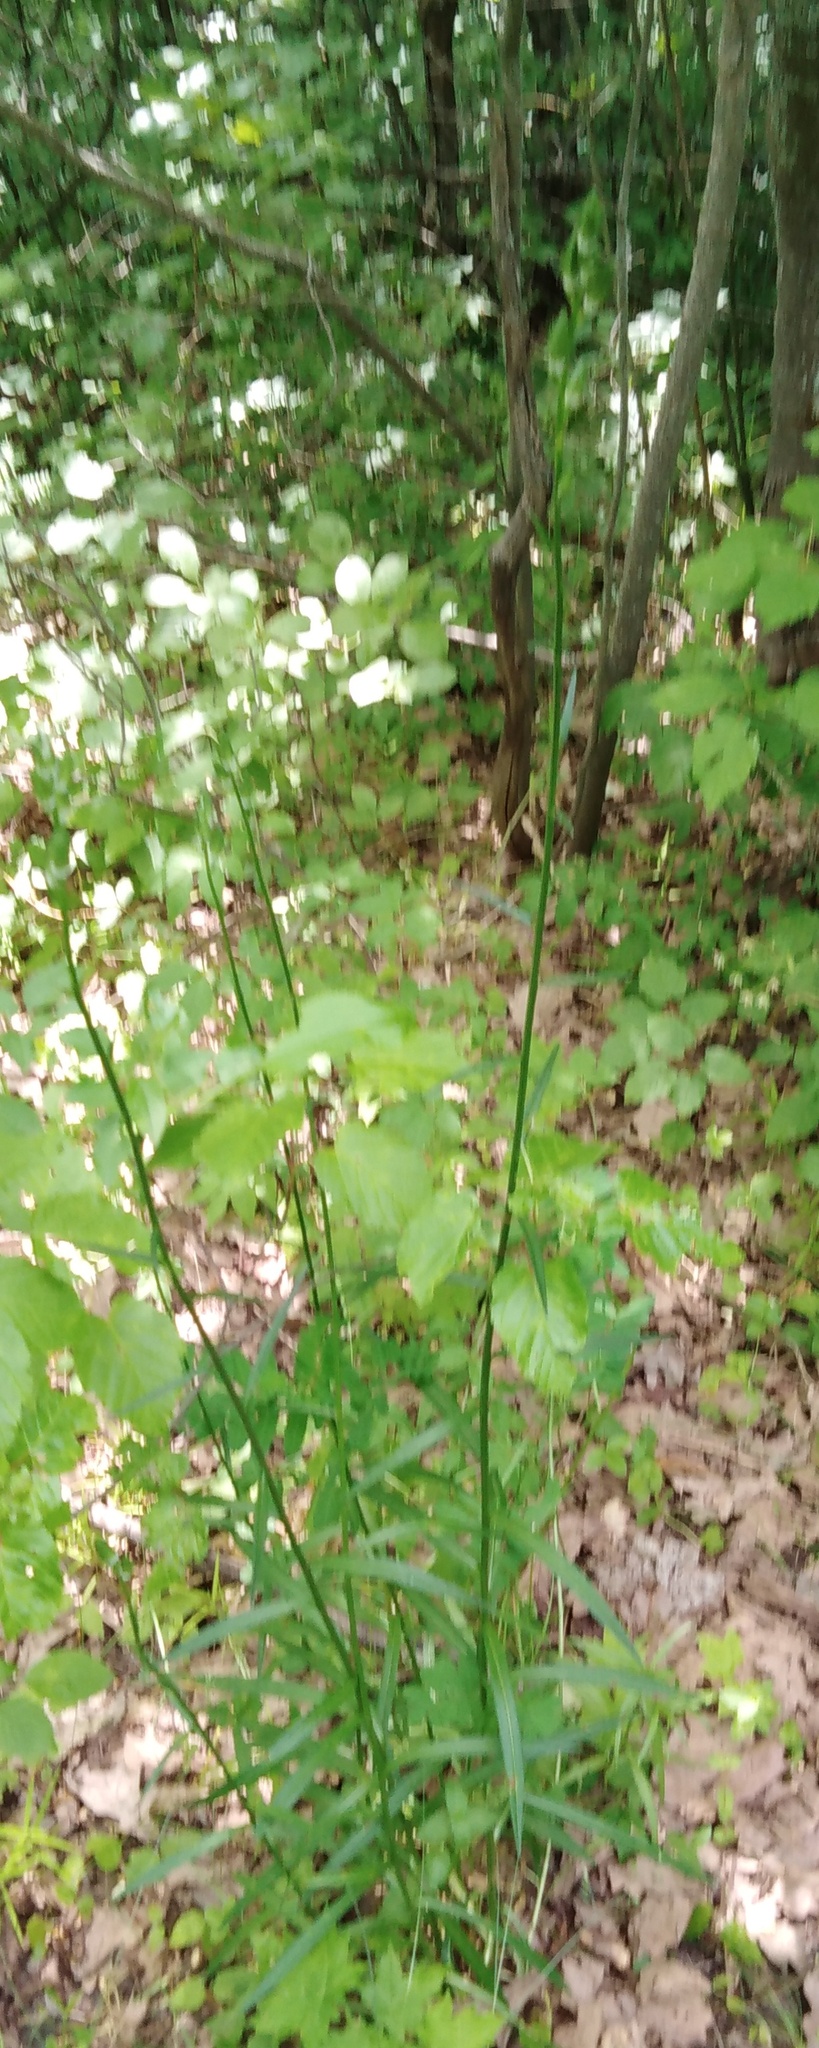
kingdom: Plantae
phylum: Tracheophyta
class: Magnoliopsida
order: Asterales
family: Campanulaceae
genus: Campanula
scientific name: Campanula persicifolia
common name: Peach-leaved bellflower
